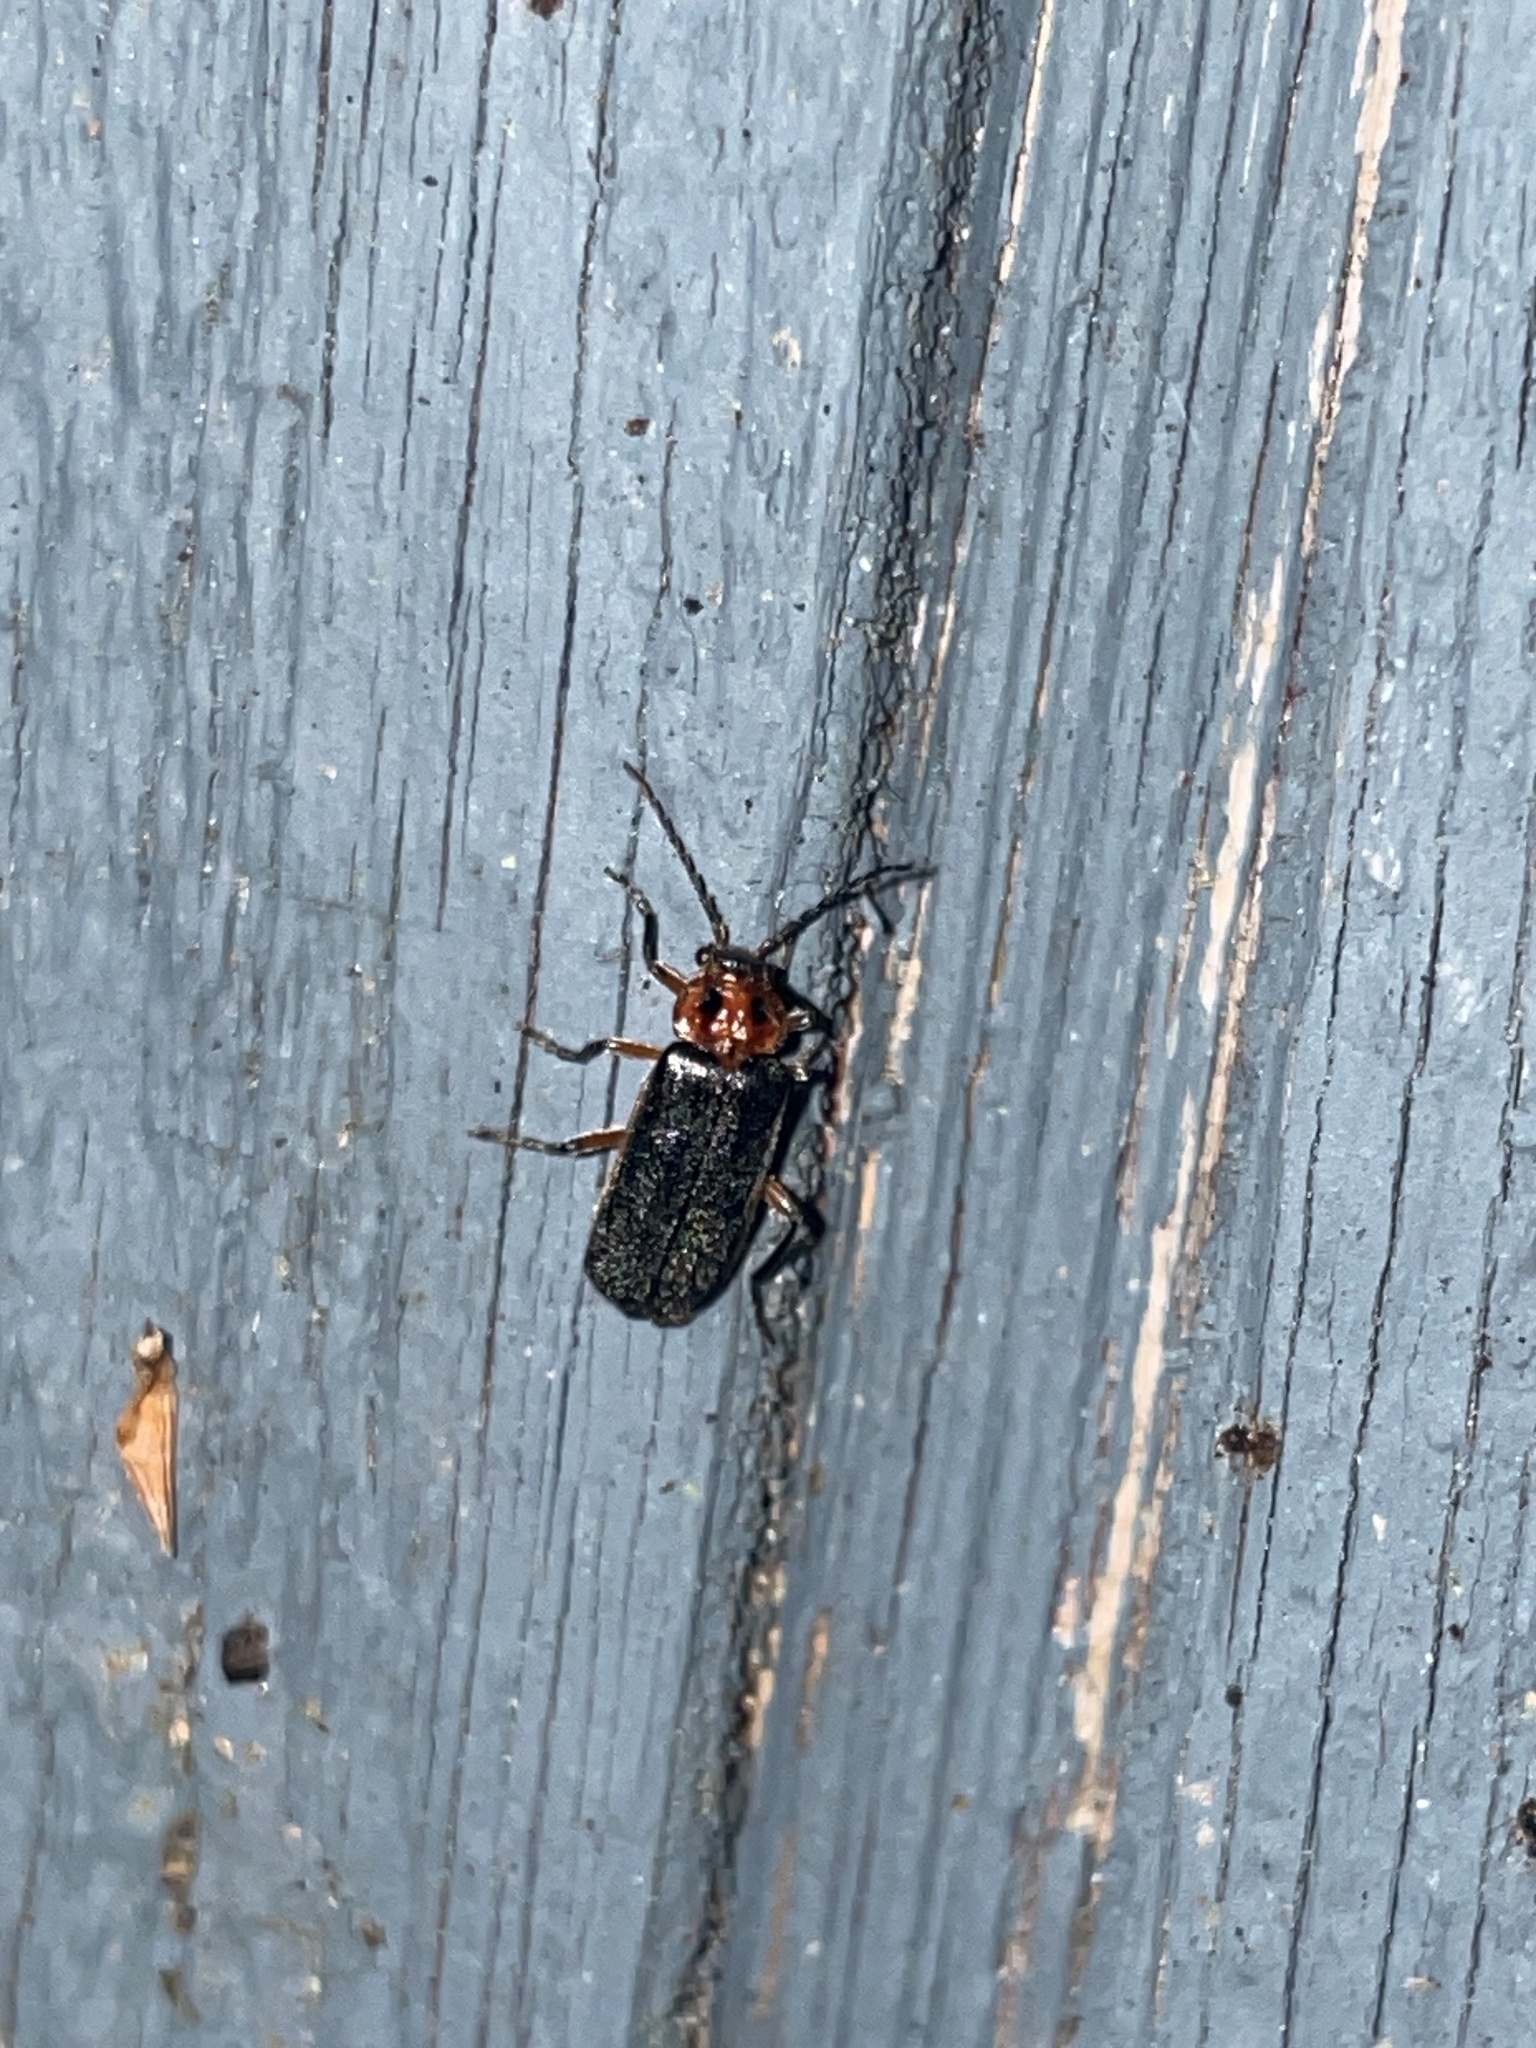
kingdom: Animalia
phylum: Arthropoda
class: Insecta
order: Coleoptera
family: Cantharidae
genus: Atalantycha
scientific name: Atalantycha bilineata
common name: Two-lined leatherwing
